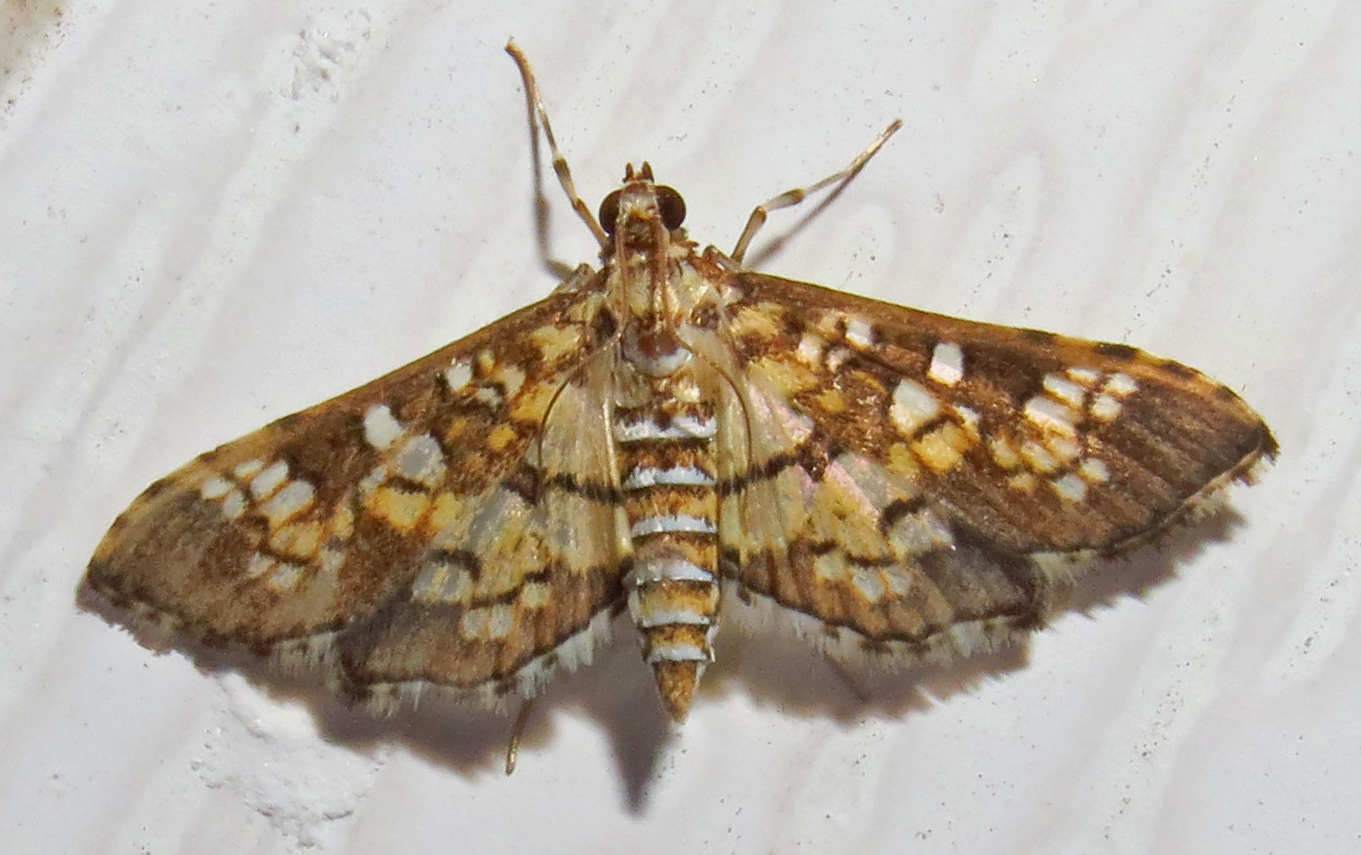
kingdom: Animalia
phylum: Arthropoda
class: Insecta
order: Lepidoptera
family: Crambidae
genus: Samea
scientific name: Samea ecclesialis
